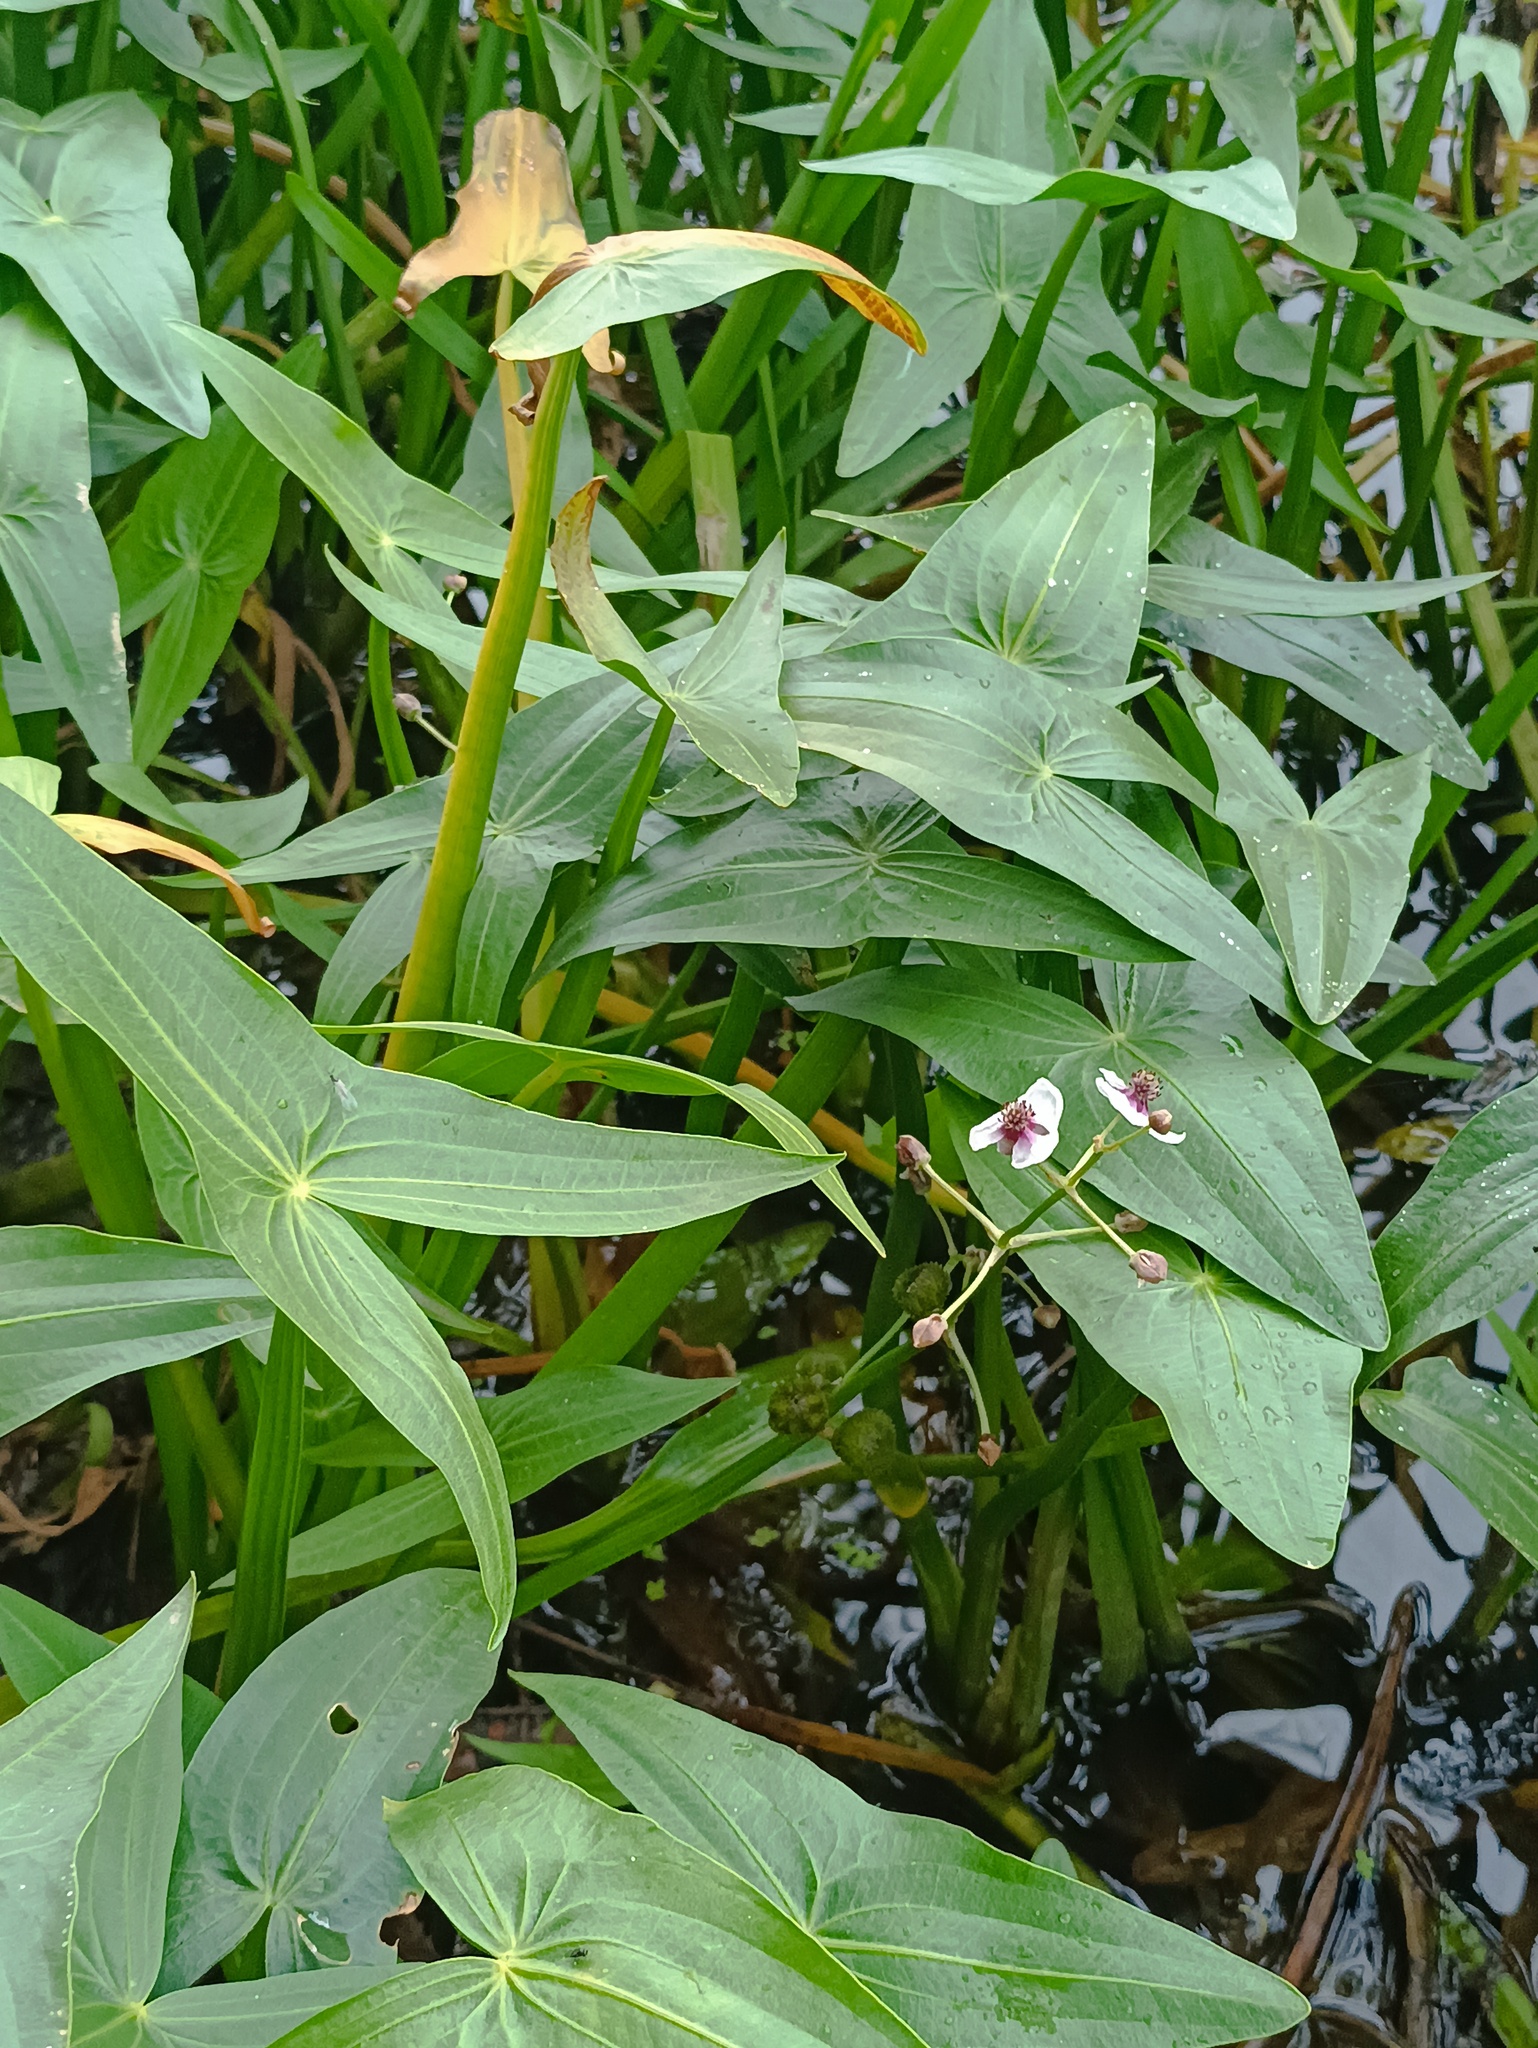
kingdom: Plantae
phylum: Tracheophyta
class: Liliopsida
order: Alismatales
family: Alismataceae
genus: Sagittaria
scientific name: Sagittaria sagittifolia
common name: Arrowhead
